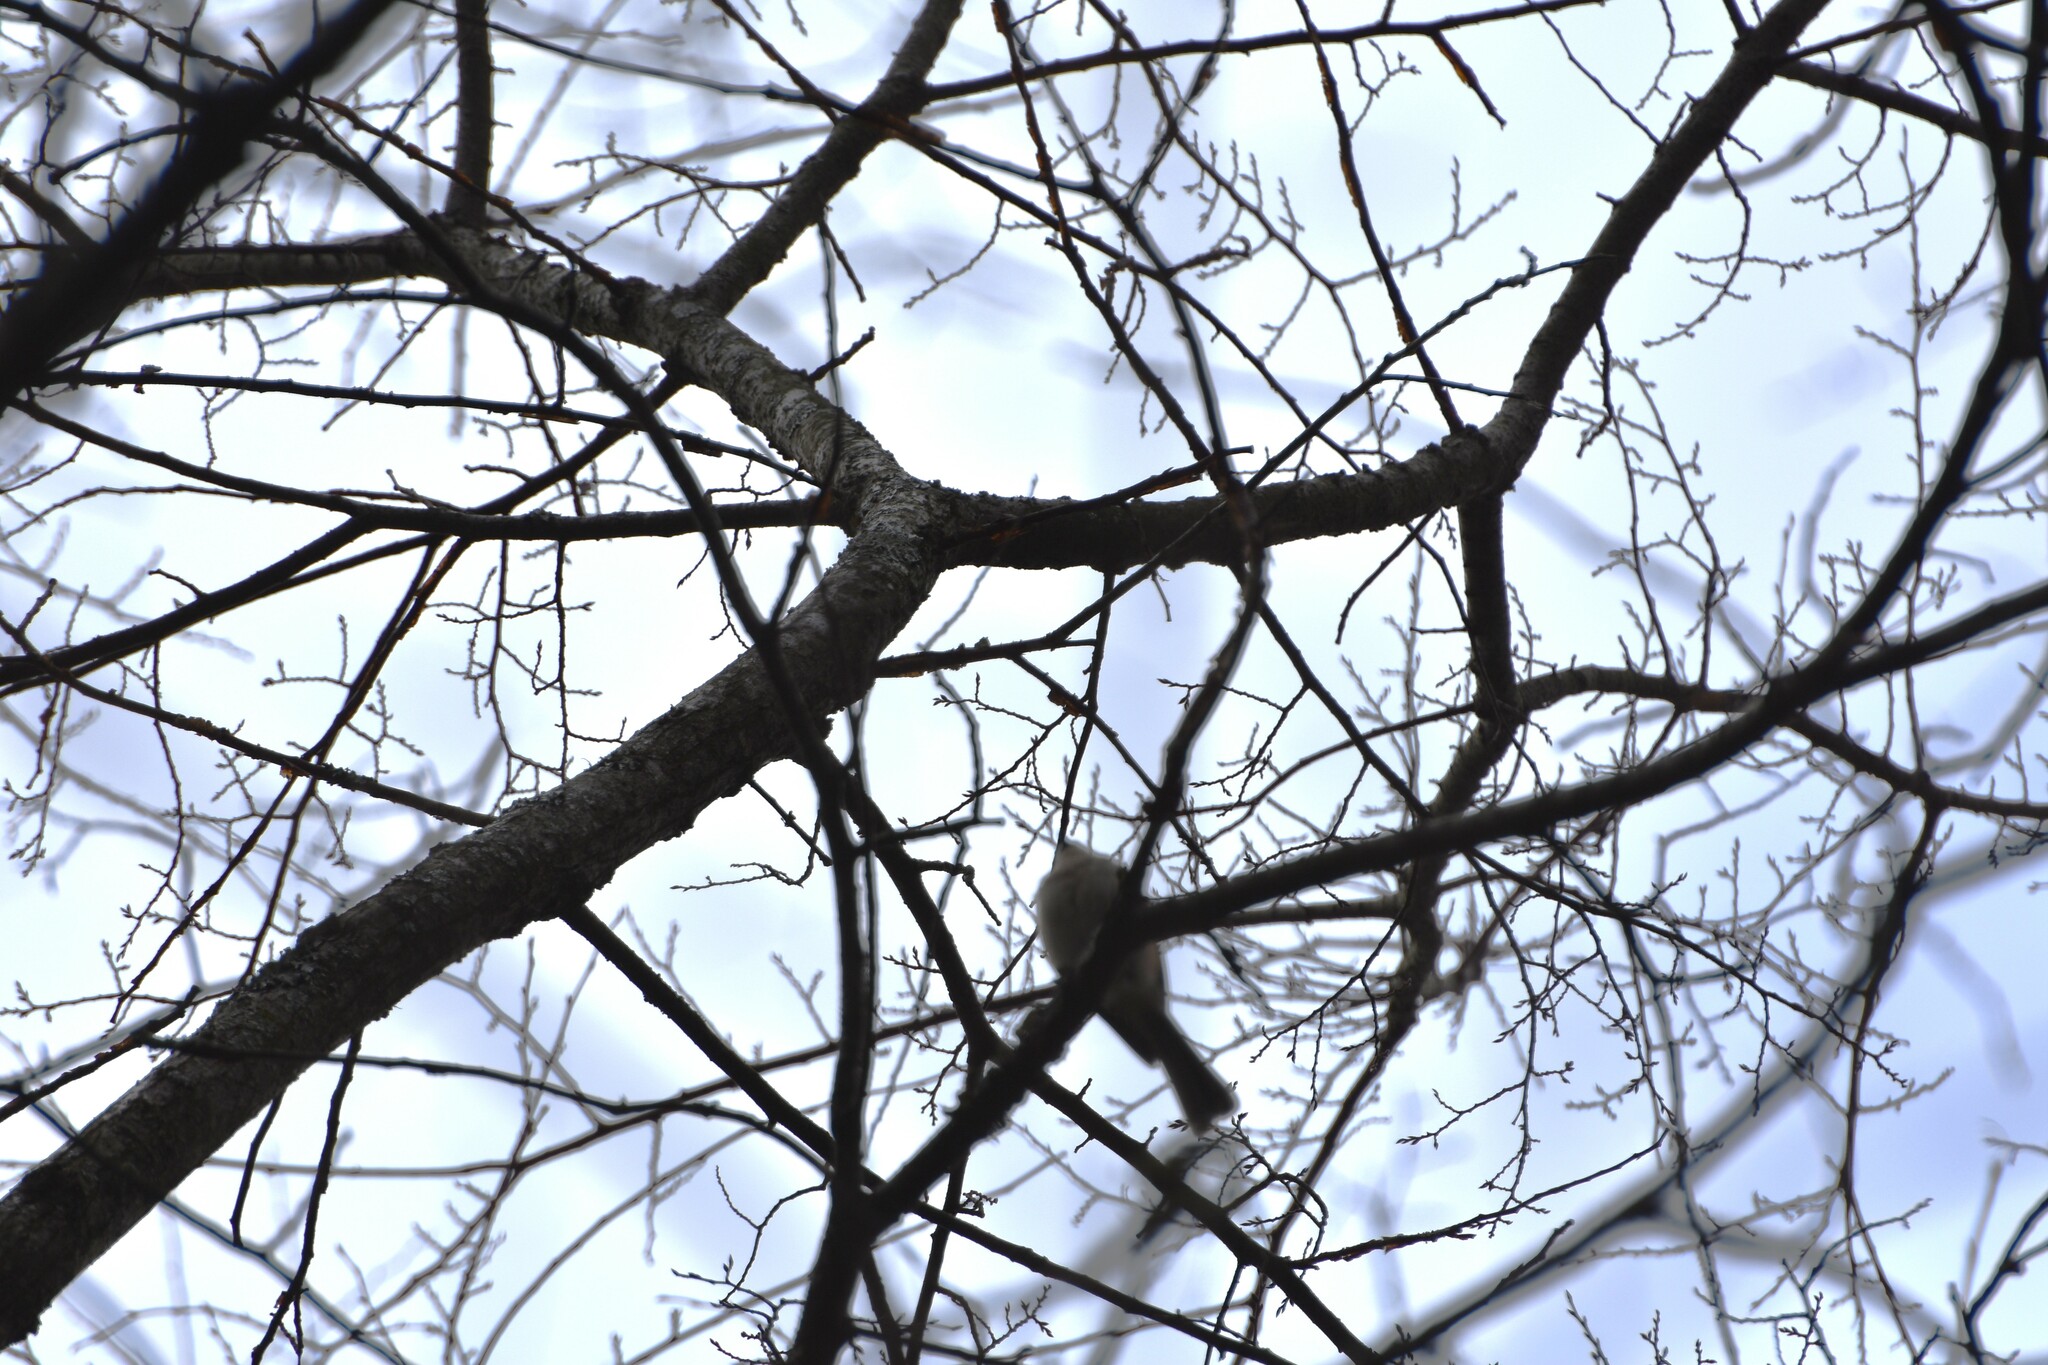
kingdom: Animalia
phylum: Chordata
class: Aves
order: Passeriformes
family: Paridae
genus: Baeolophus
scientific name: Baeolophus bicolor
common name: Tufted titmouse
